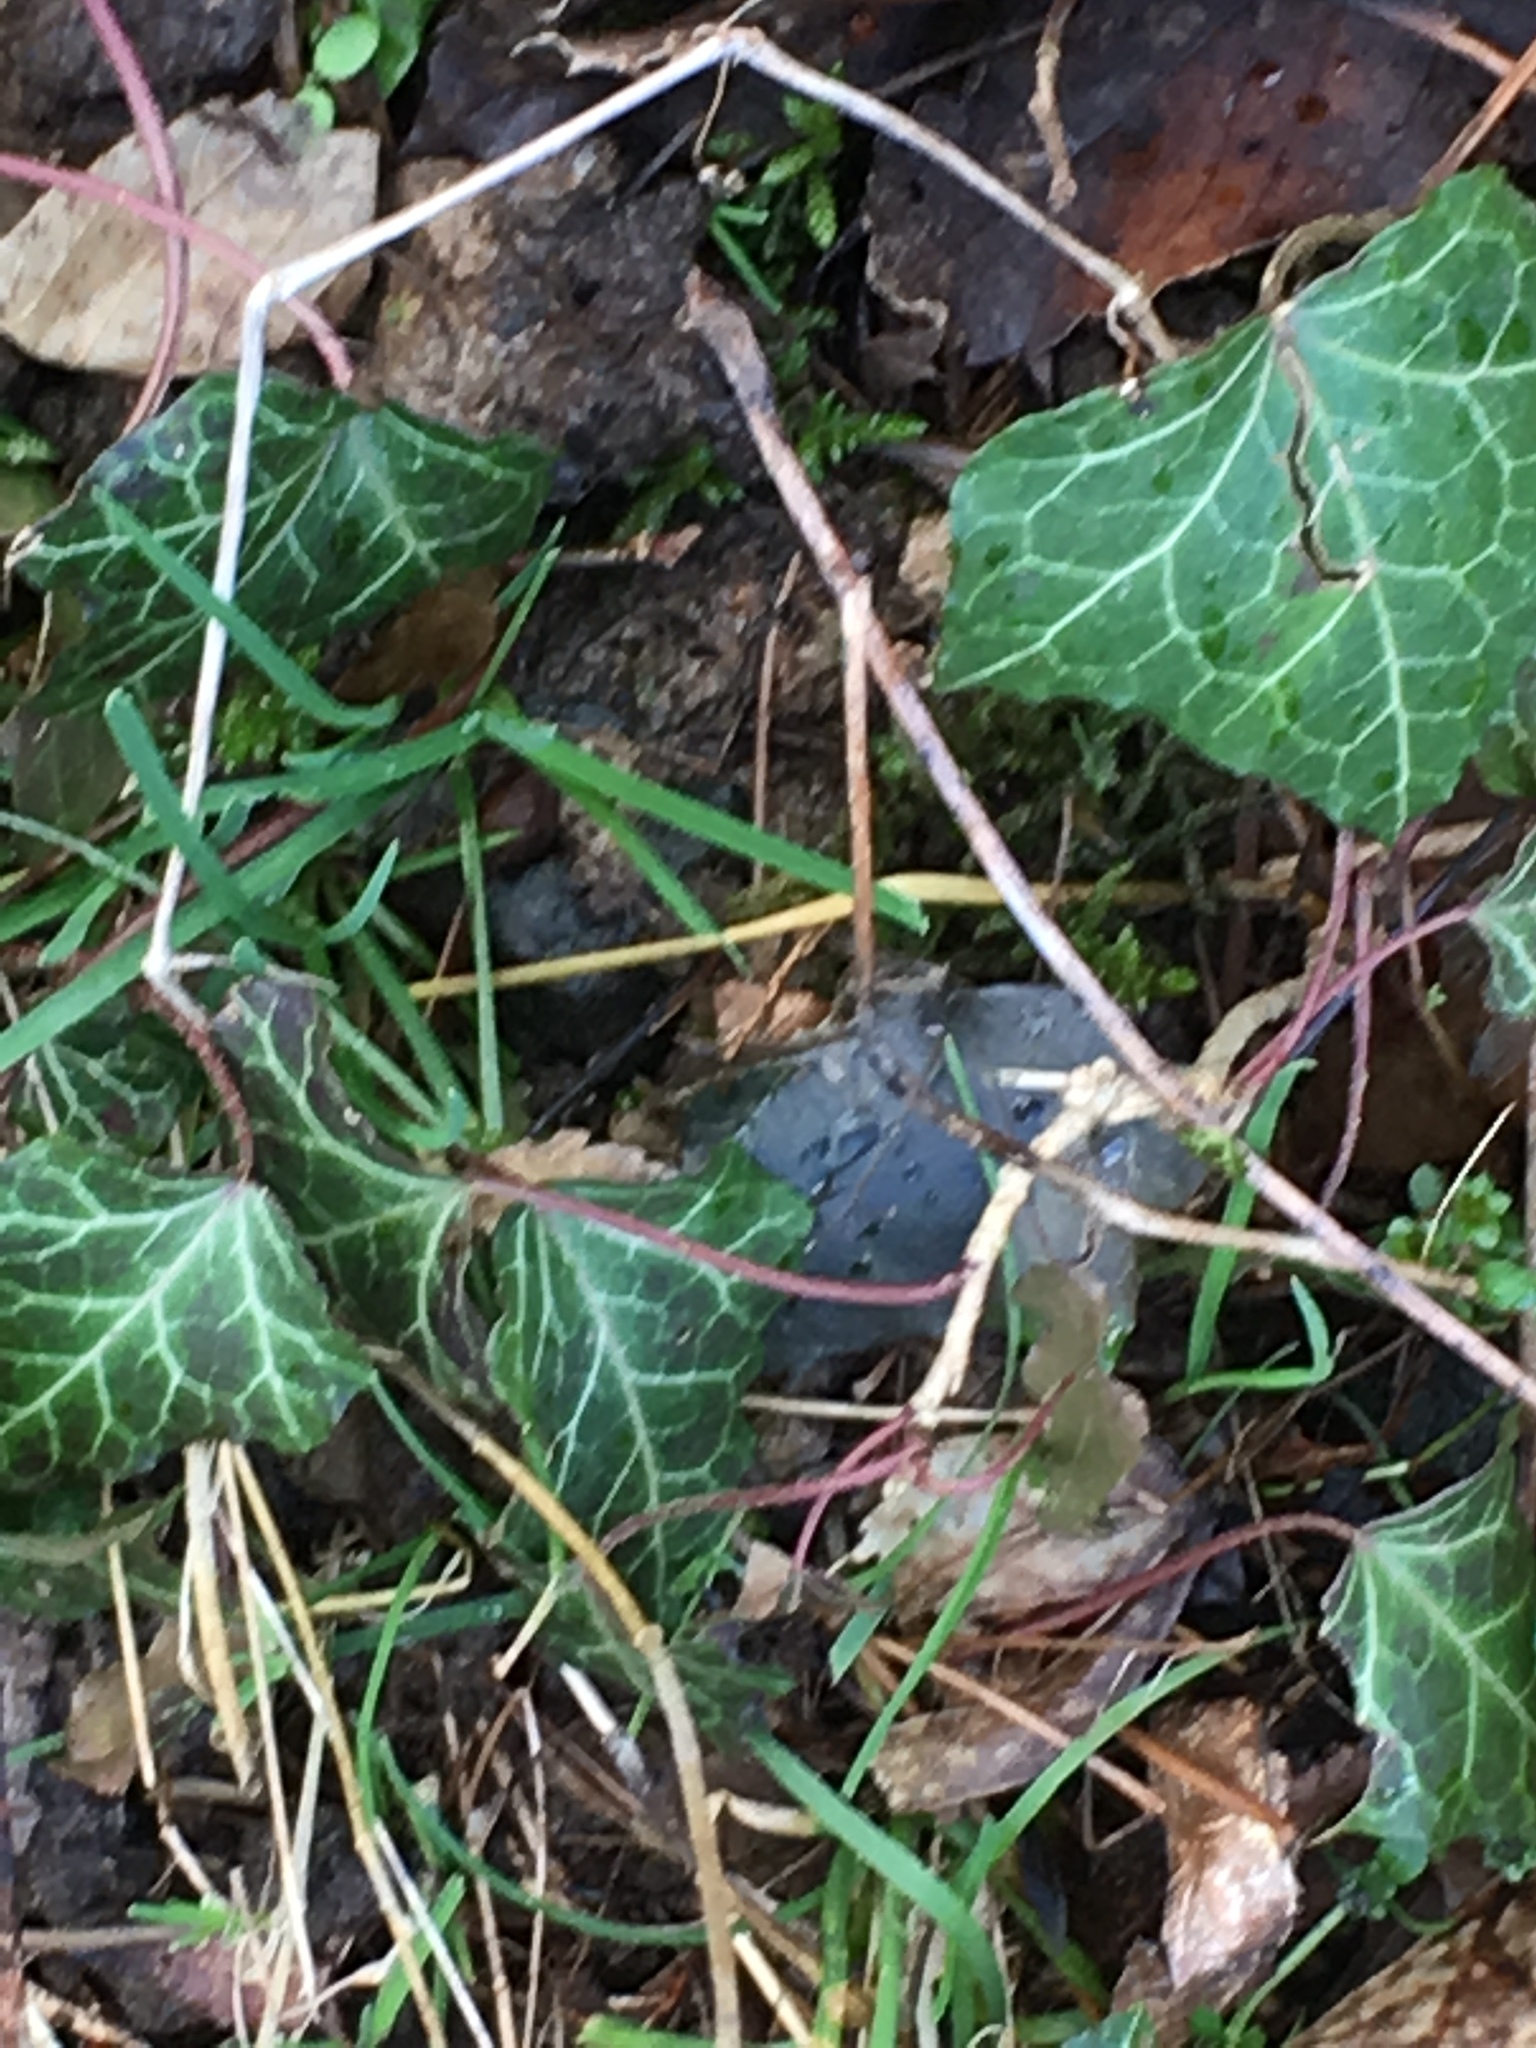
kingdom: Plantae
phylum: Tracheophyta
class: Magnoliopsida
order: Apiales
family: Araliaceae
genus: Hedera
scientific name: Hedera helix
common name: Ivy
